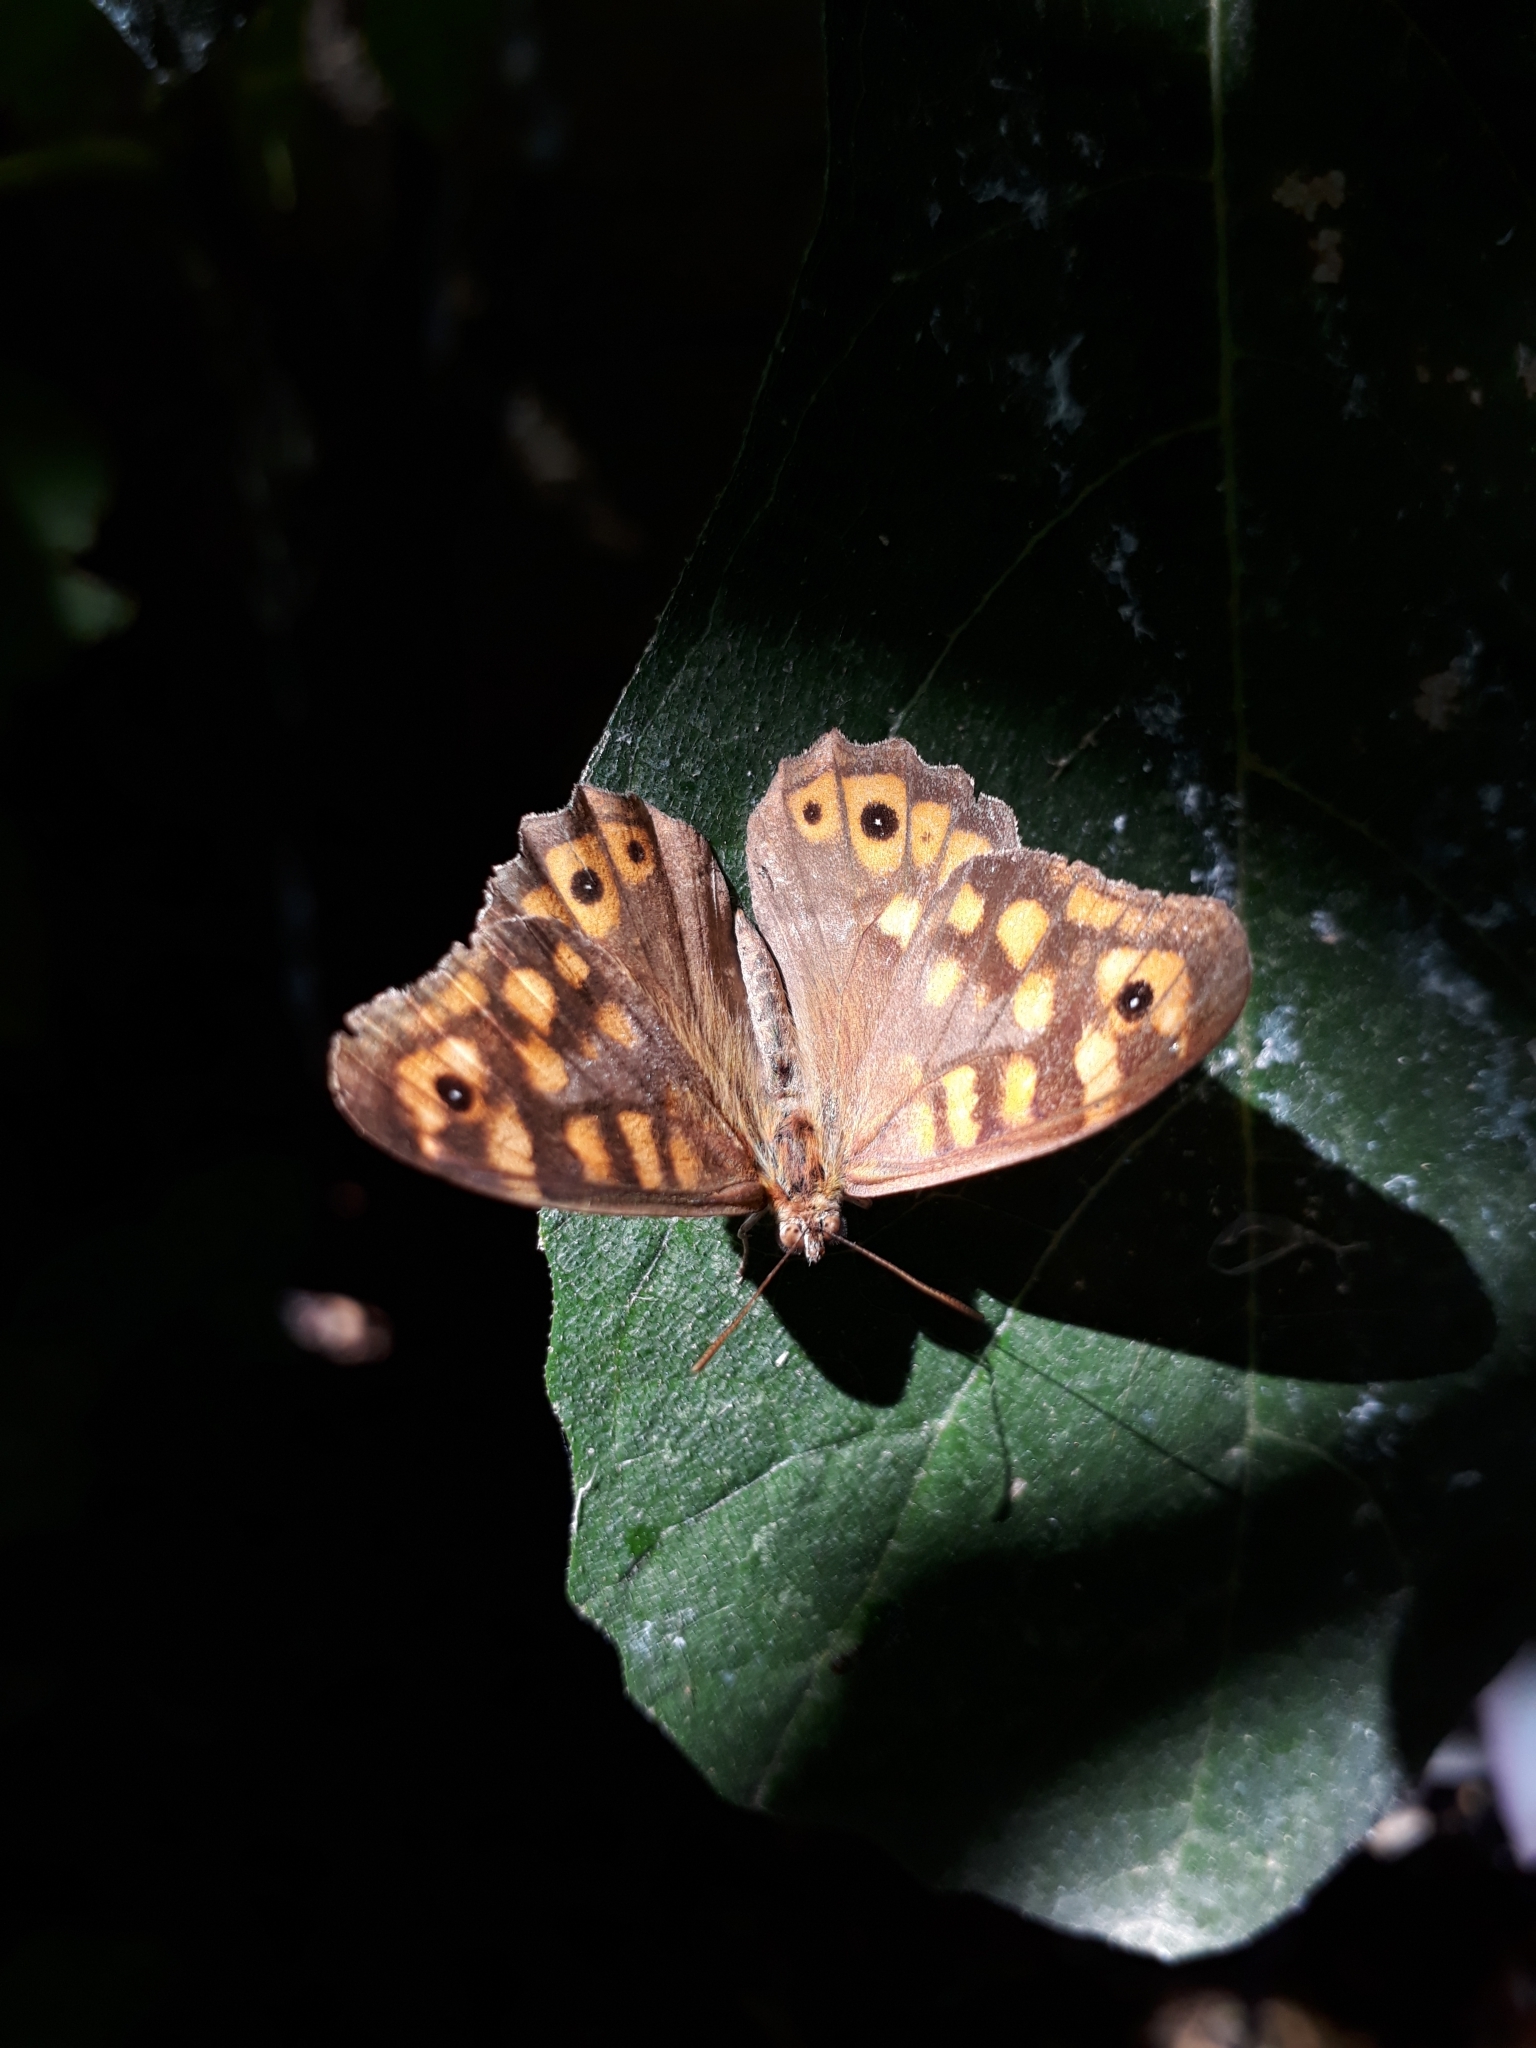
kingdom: Animalia
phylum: Arthropoda
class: Insecta
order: Lepidoptera
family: Nymphalidae
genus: Pararge
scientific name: Pararge aegeria
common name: Speckled wood
